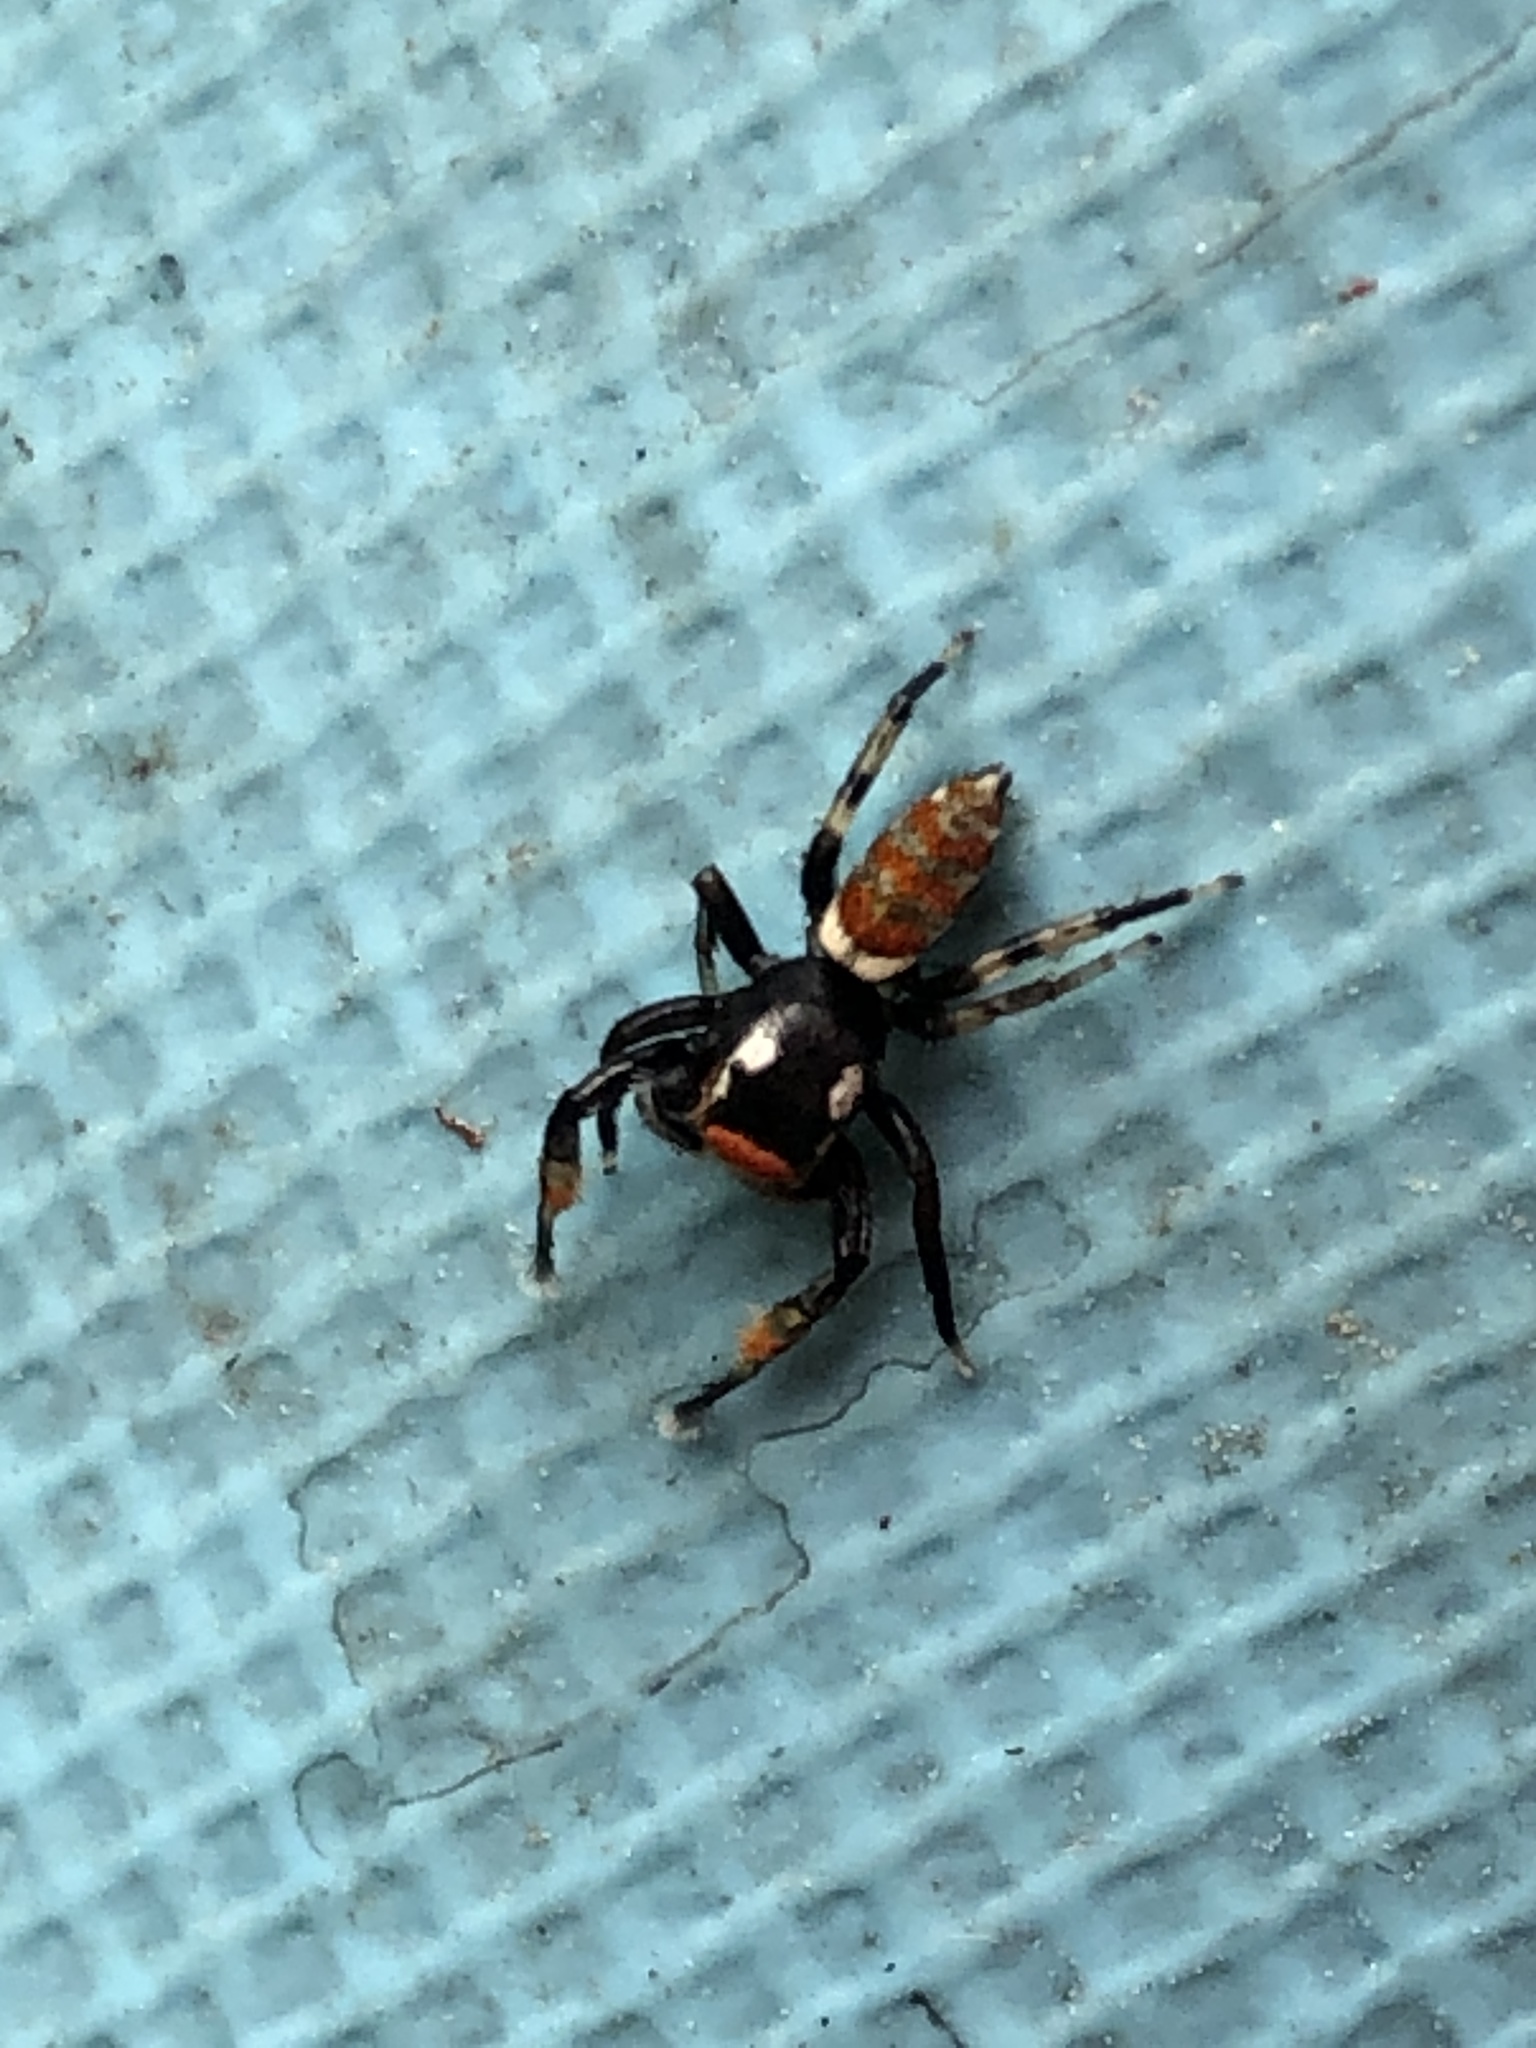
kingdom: Animalia
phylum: Arthropoda
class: Arachnida
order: Araneae
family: Salticidae
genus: Marpissa
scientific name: Marpissa pulla
